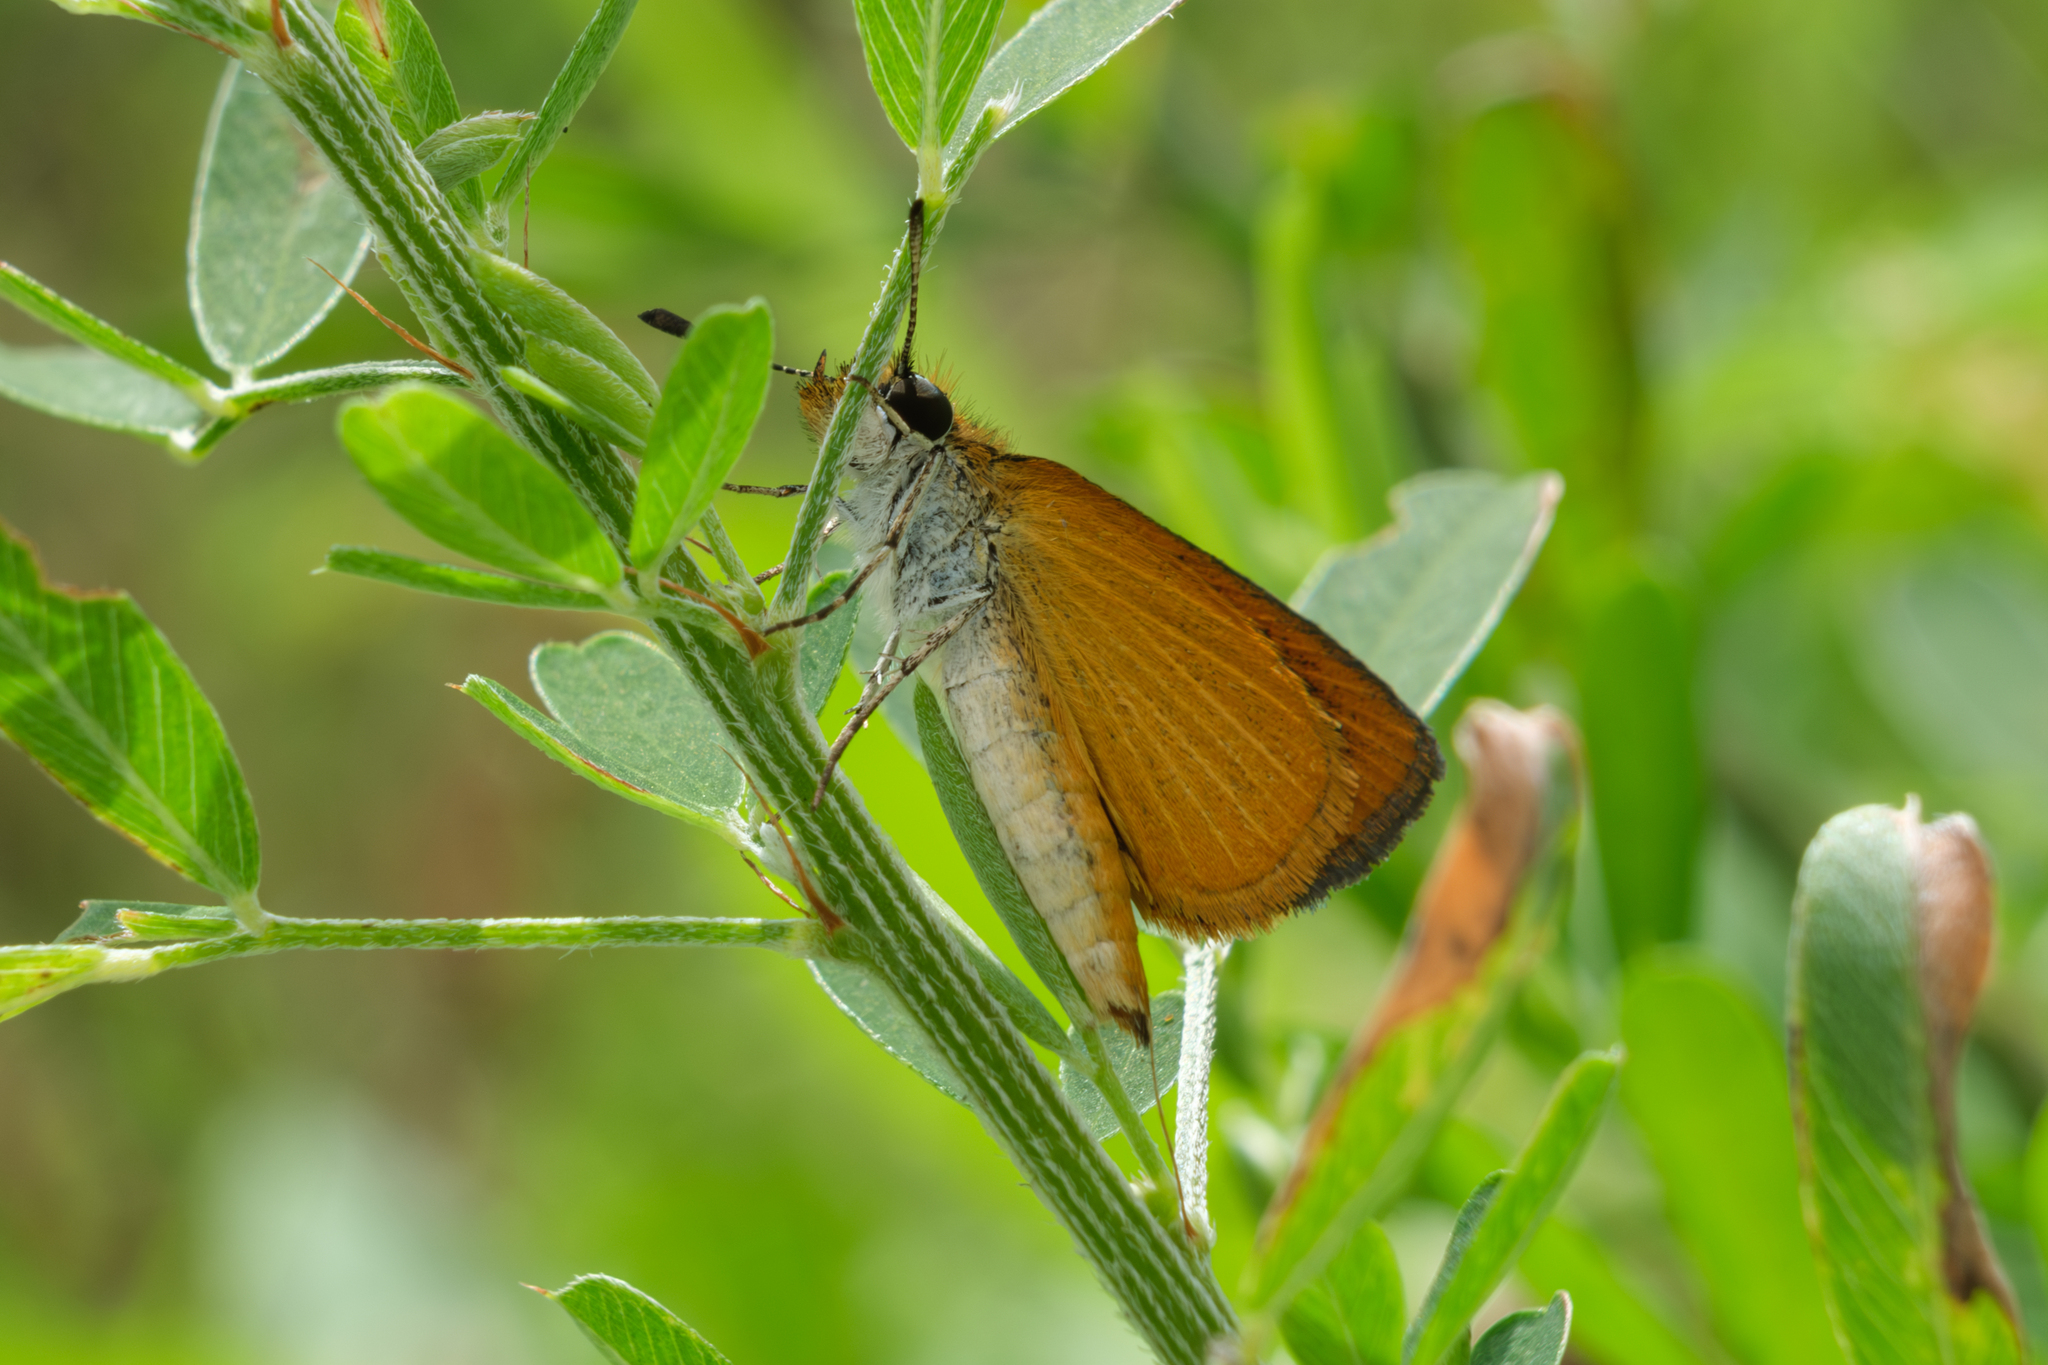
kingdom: Animalia
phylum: Arthropoda
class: Insecta
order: Lepidoptera
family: Hesperiidae
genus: Ancyloxypha
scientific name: Ancyloxypha numitor
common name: Least skipper
